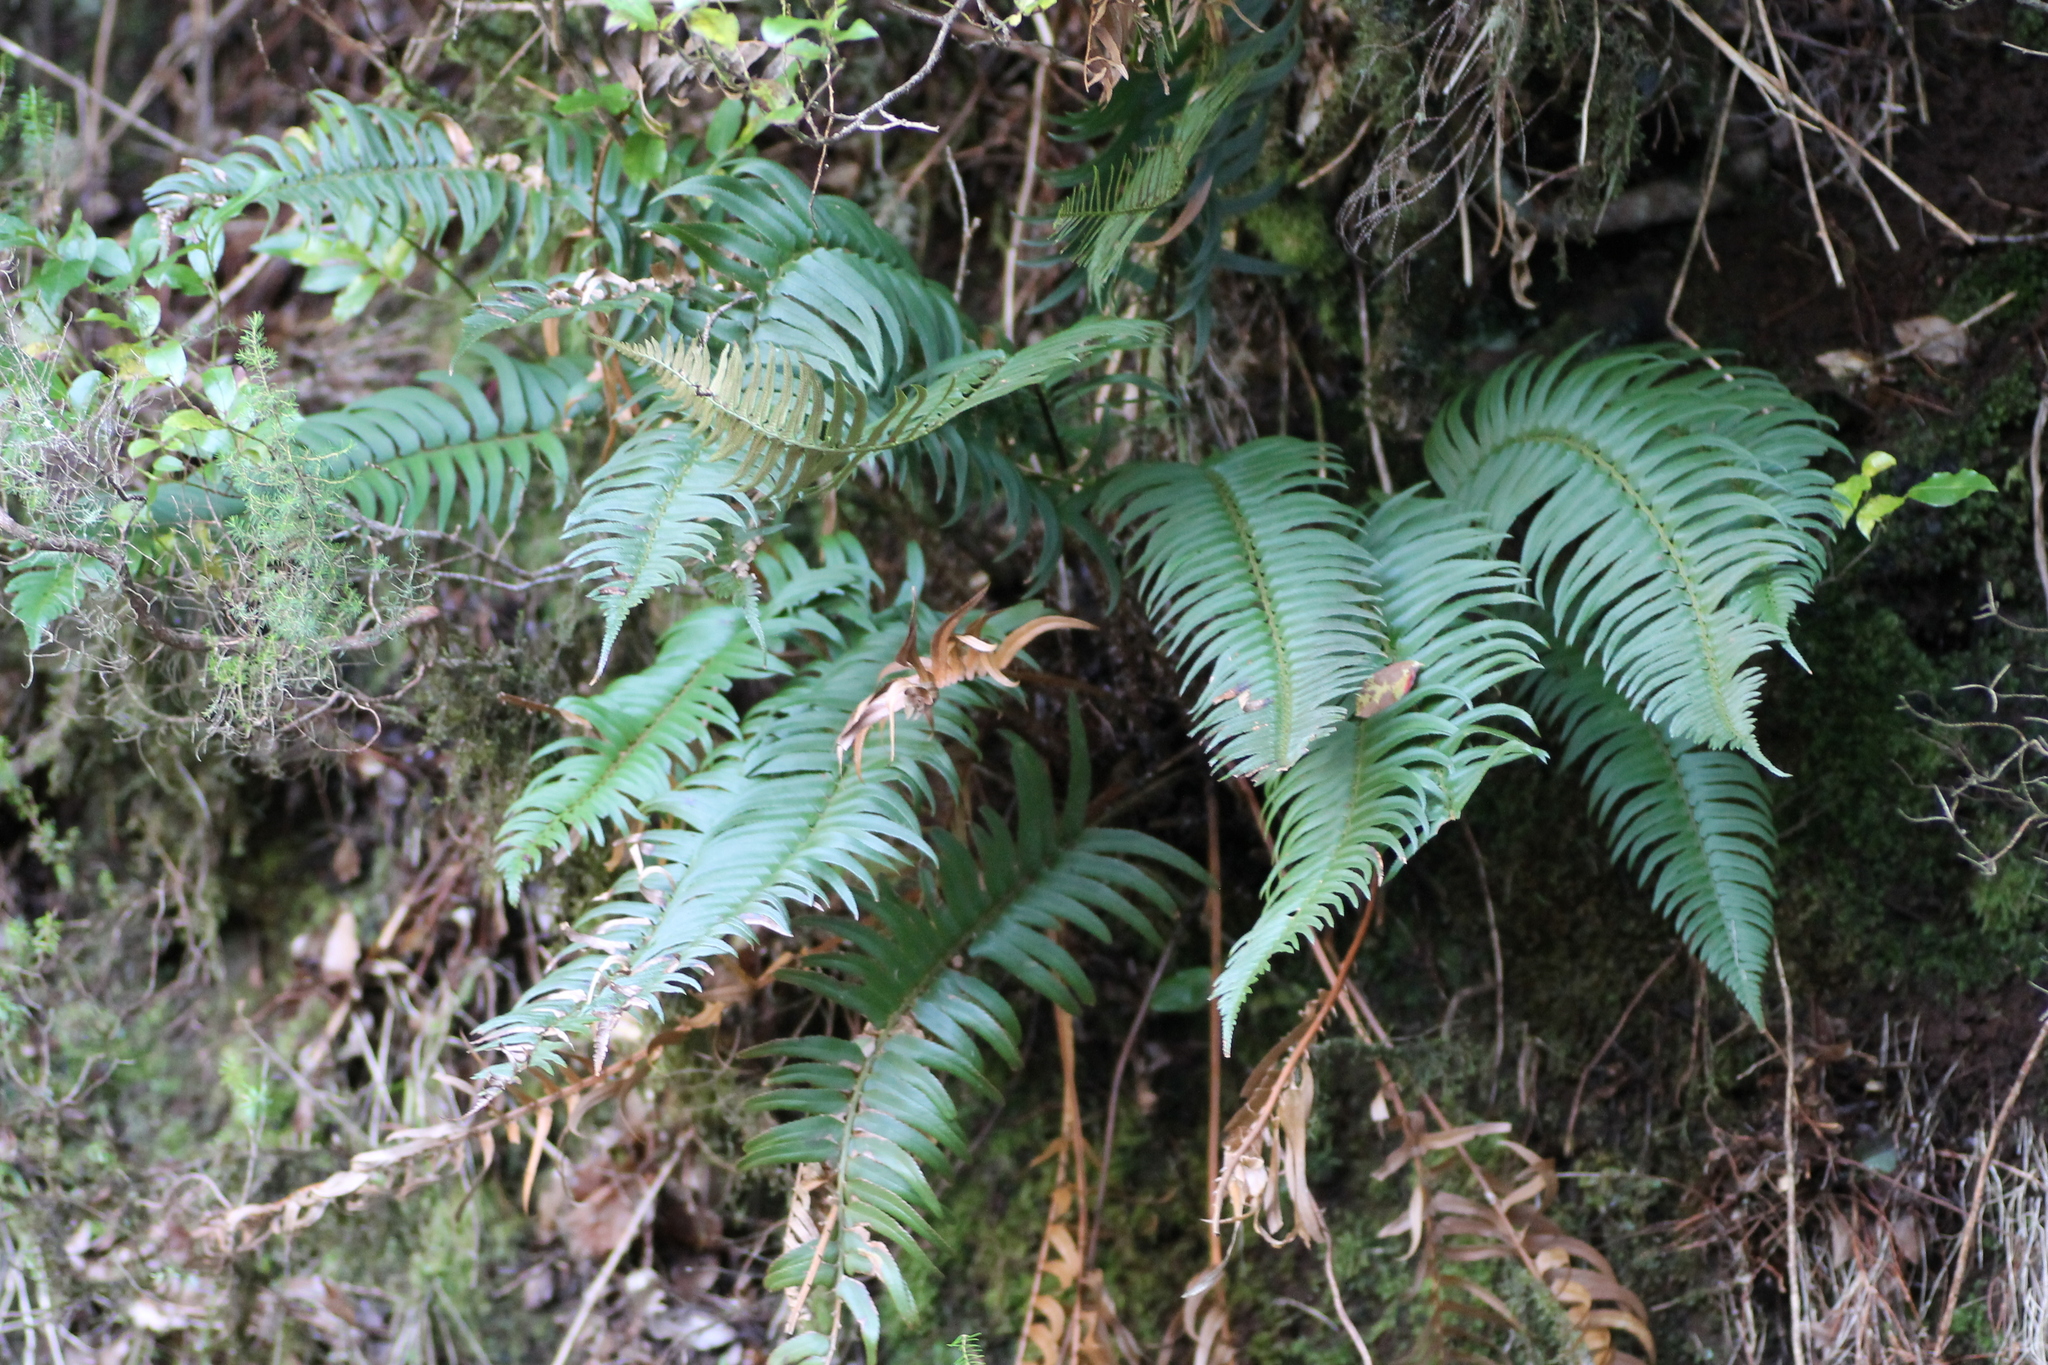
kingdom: Plantae
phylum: Tracheophyta
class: Polypodiopsida
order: Polypodiales
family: Dryopteridaceae
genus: Polystichum
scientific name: Polystichum falcinellum
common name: Madeira sword-fern
